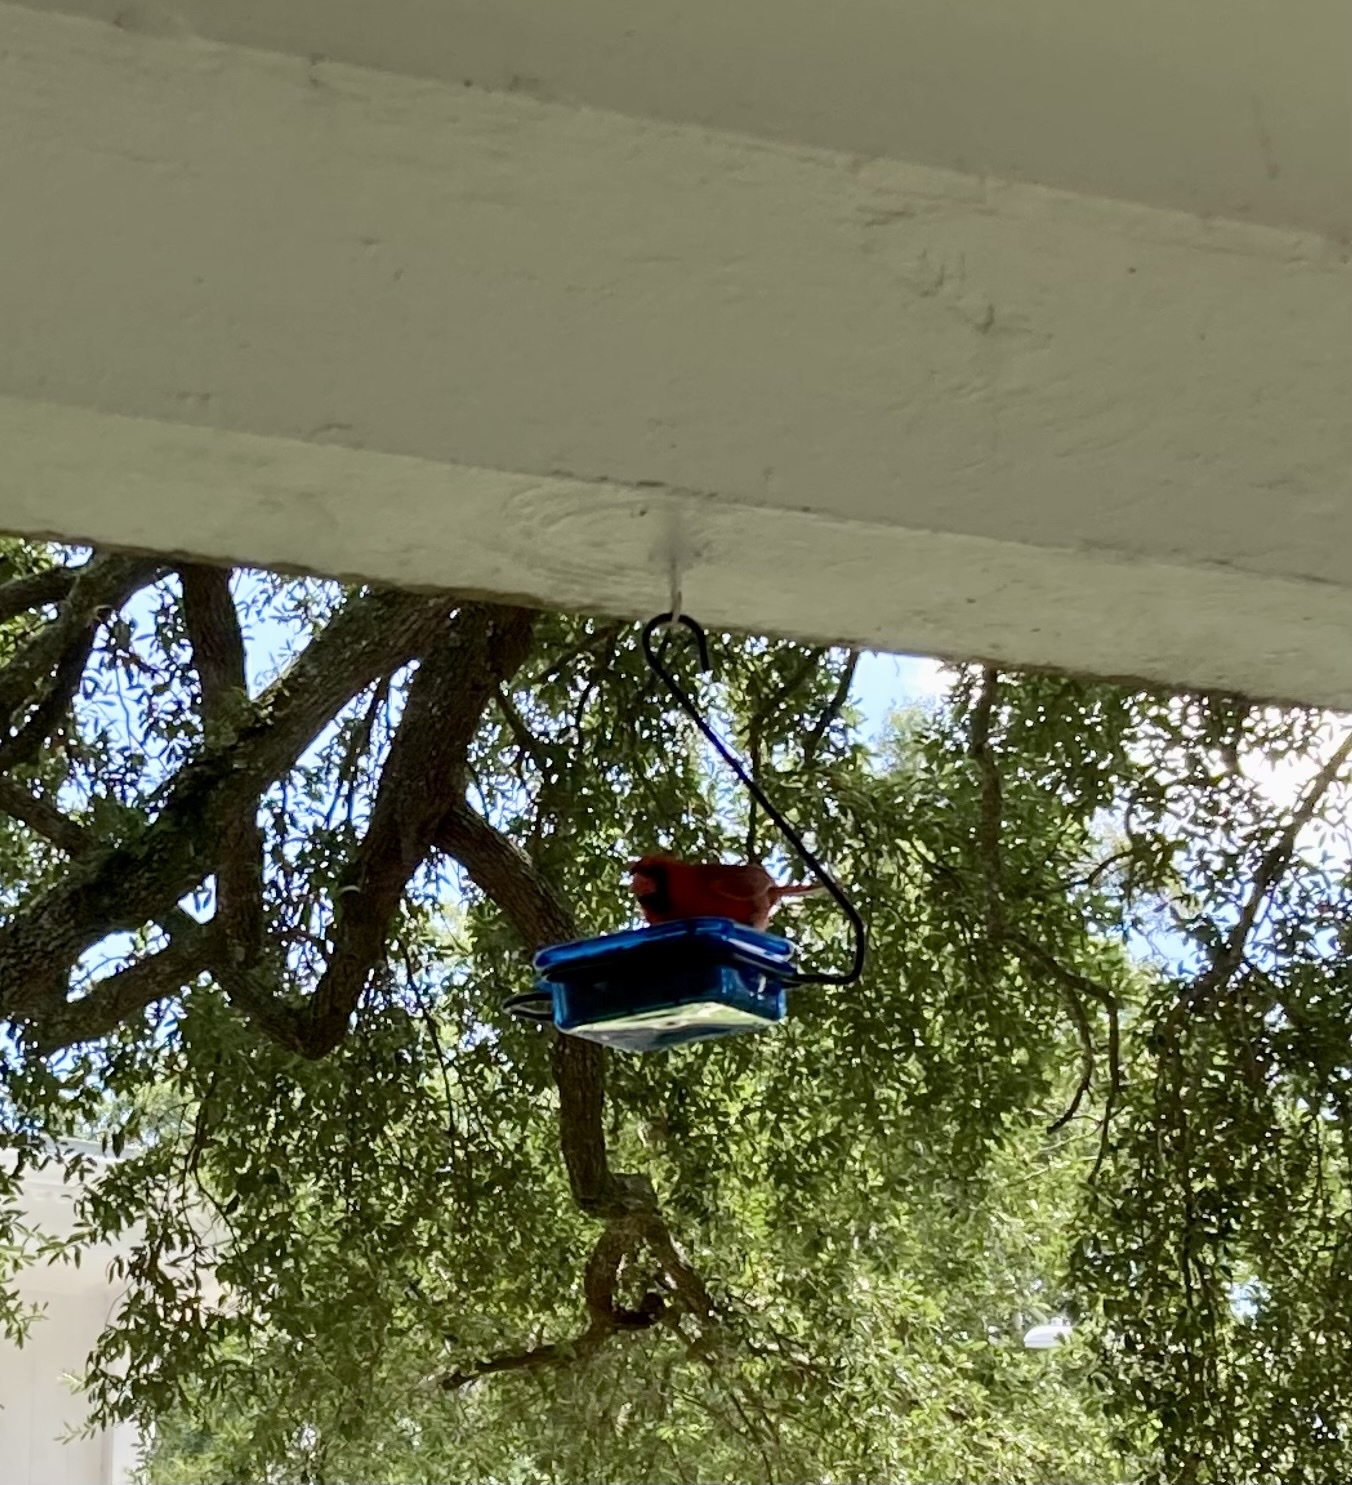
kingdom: Animalia
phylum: Chordata
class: Aves
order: Passeriformes
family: Cardinalidae
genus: Cardinalis
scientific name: Cardinalis cardinalis
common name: Northern cardinal
